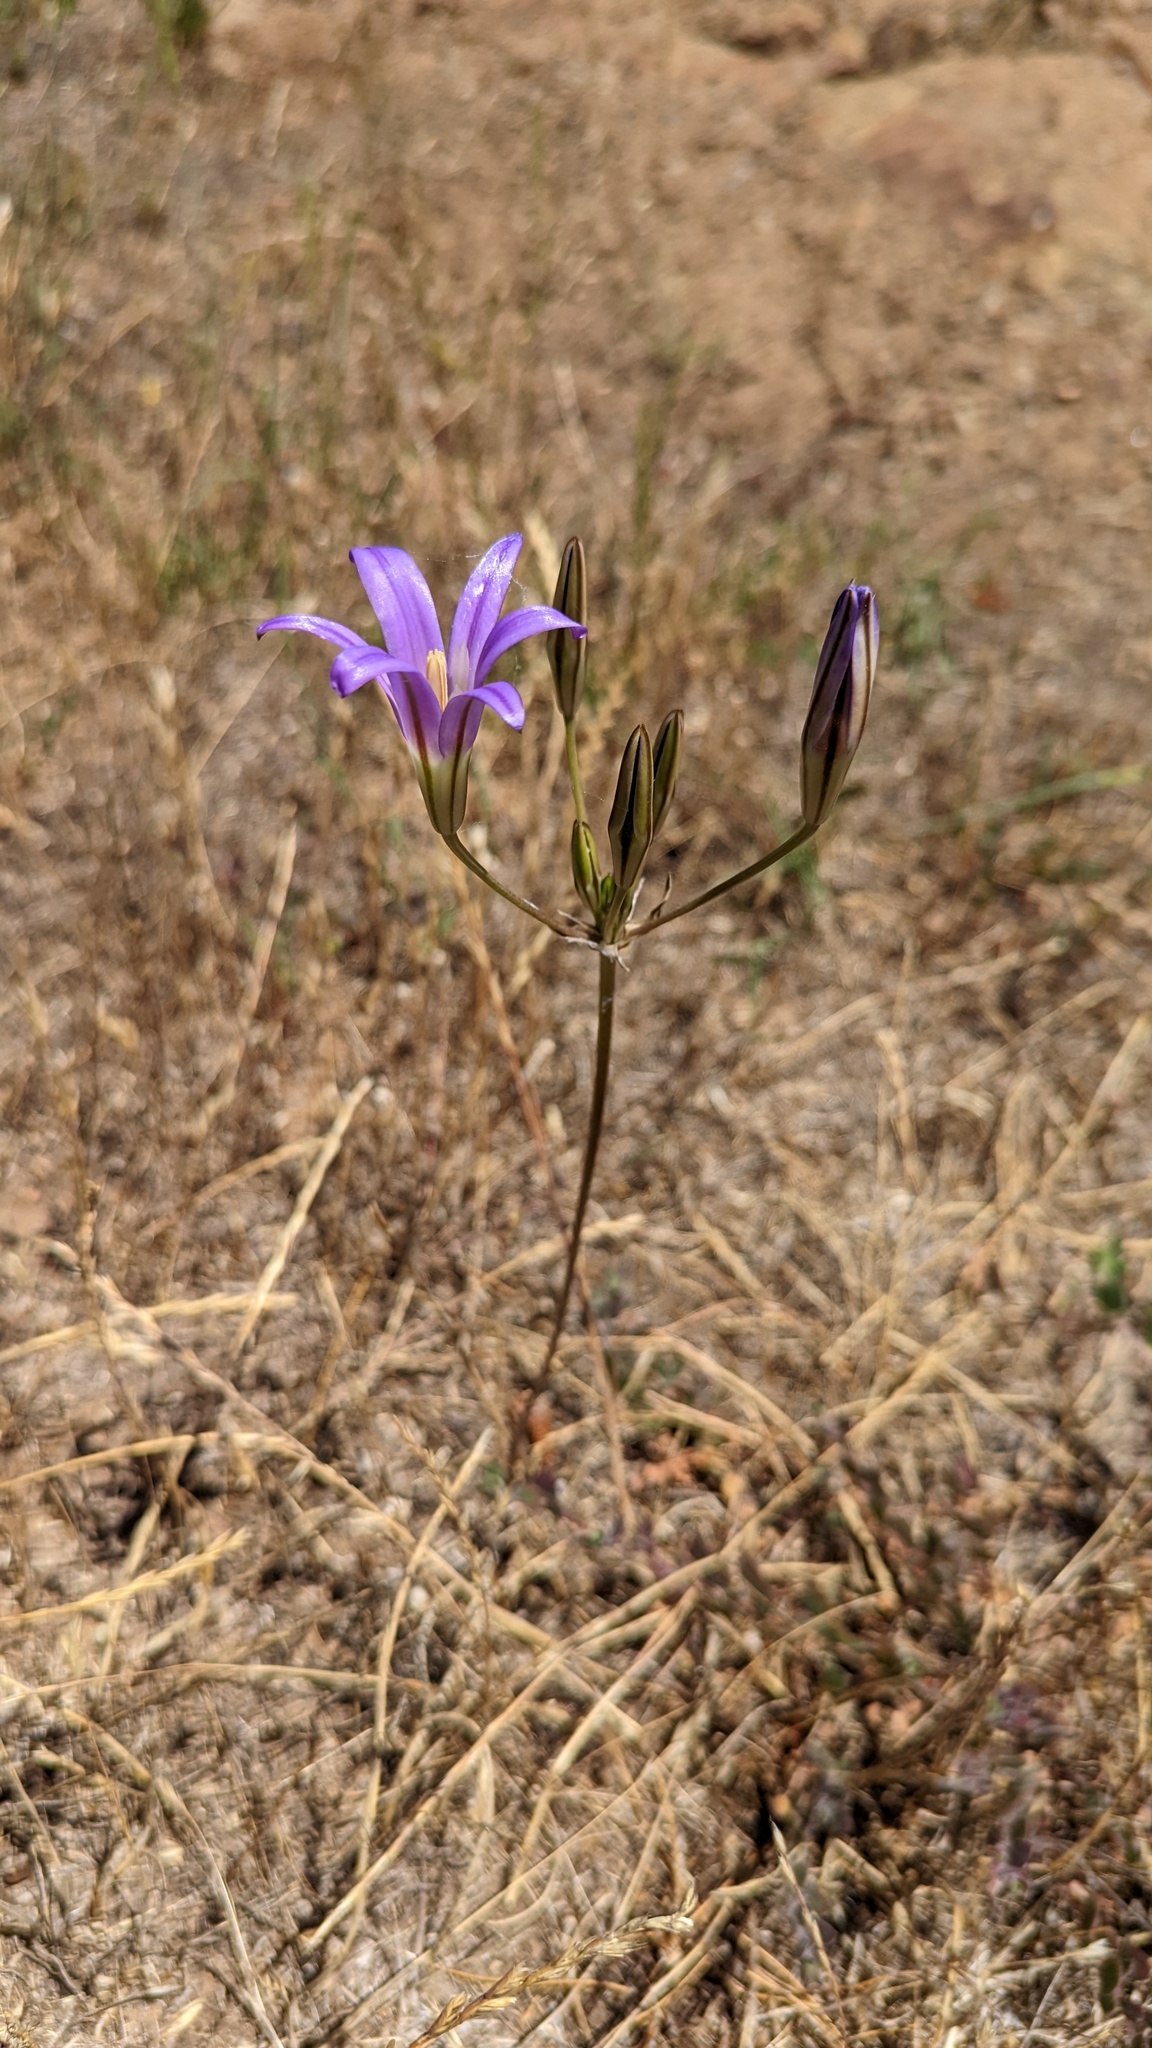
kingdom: Plantae
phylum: Tracheophyta
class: Liliopsida
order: Asparagales
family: Asparagaceae
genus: Brodiaea
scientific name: Brodiaea elegans
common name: Elegant cluster-lily
